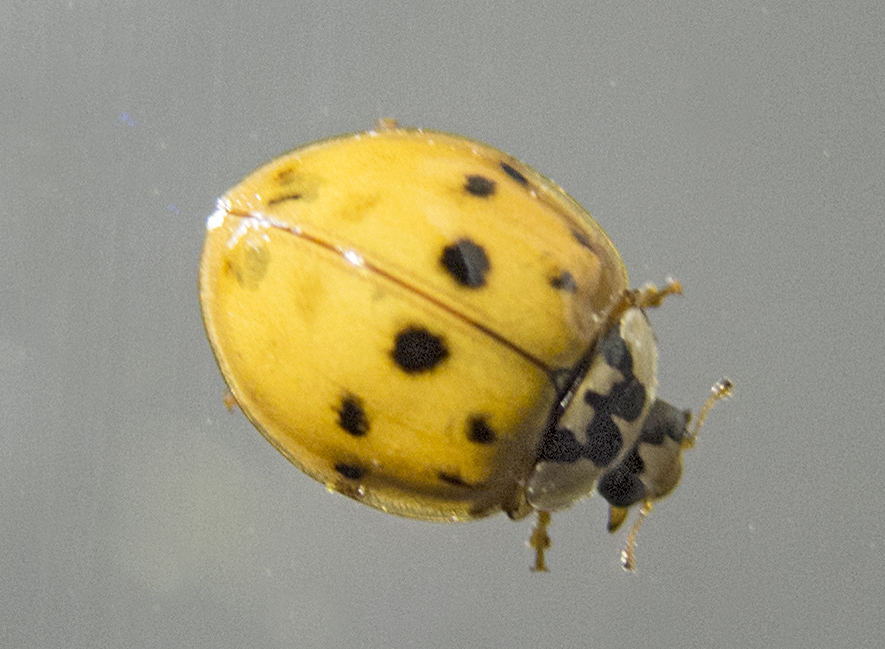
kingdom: Animalia
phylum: Arthropoda
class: Insecta
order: Coleoptera
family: Coccinellidae
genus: Harmonia
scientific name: Harmonia axyridis
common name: Harlequin ladybird
